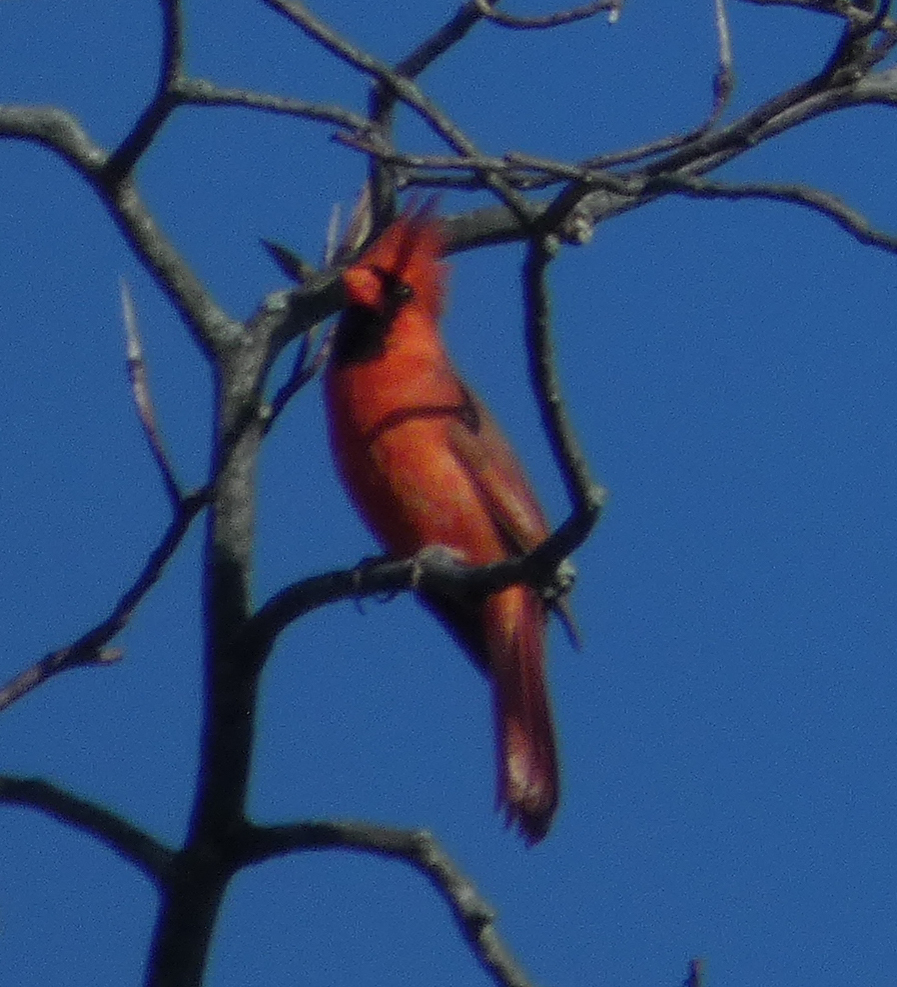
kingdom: Animalia
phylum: Chordata
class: Aves
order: Passeriformes
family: Cardinalidae
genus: Cardinalis
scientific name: Cardinalis cardinalis
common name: Northern cardinal
